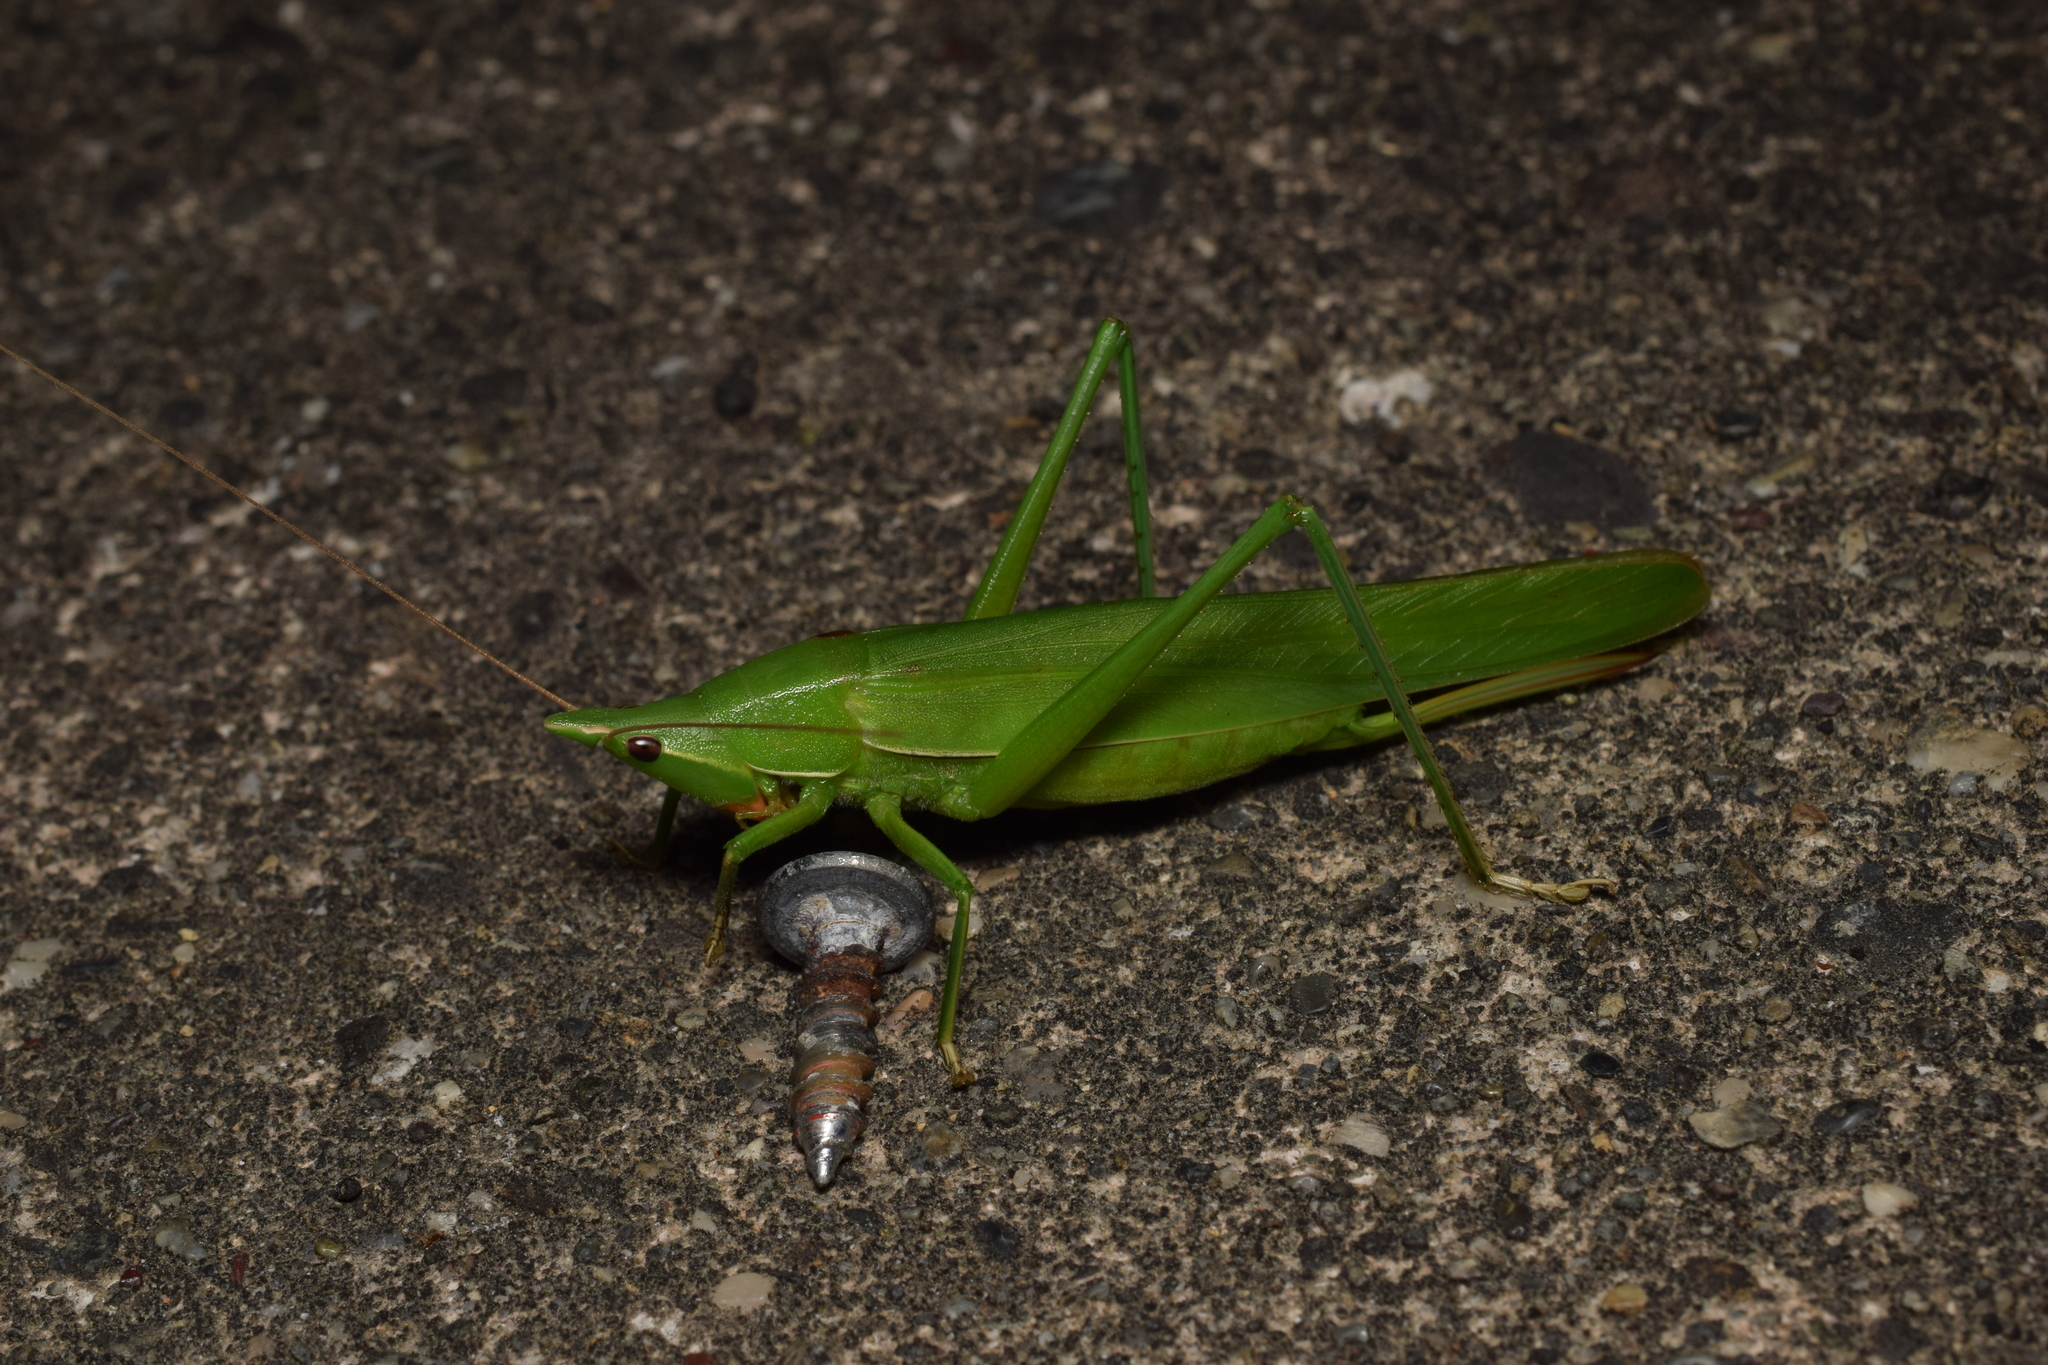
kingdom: Animalia
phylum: Arthropoda
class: Insecta
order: Orthoptera
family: Tettigoniidae
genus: Euconocephalus
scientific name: Euconocephalus varius
